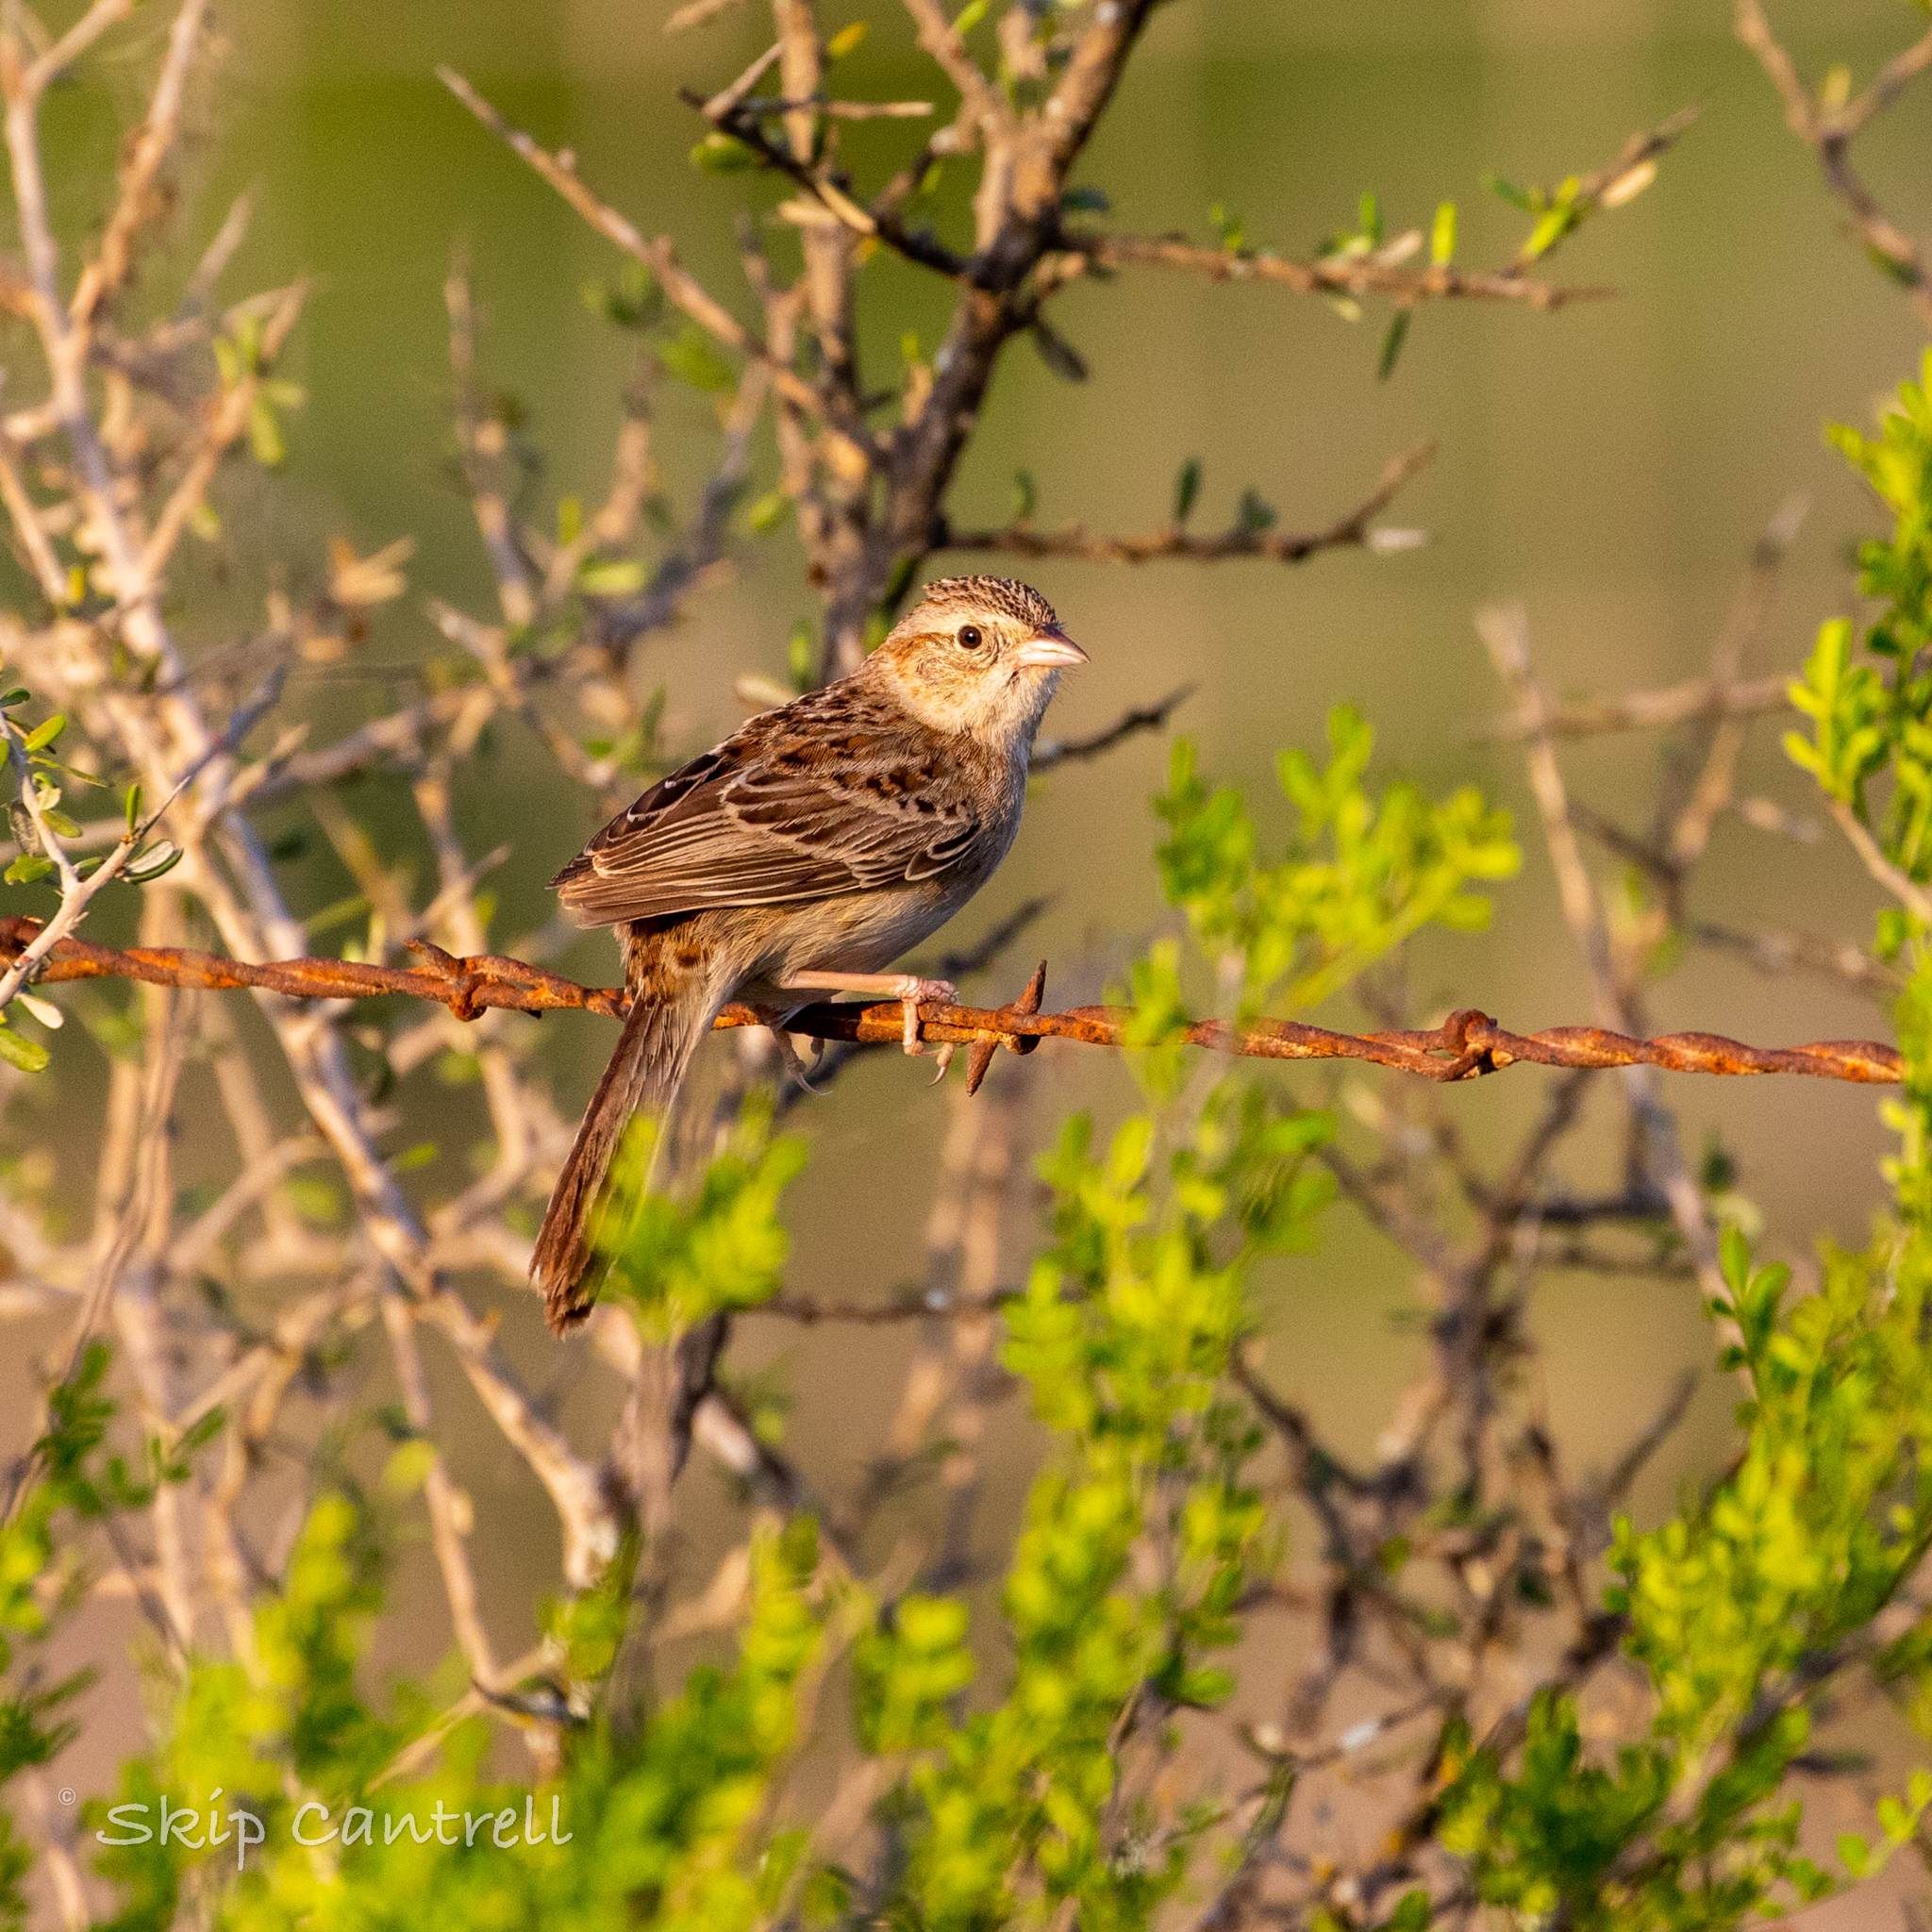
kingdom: Animalia
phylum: Chordata
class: Aves
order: Passeriformes
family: Passerellidae
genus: Peucaea
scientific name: Peucaea cassinii
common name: Cassin's sparrow
